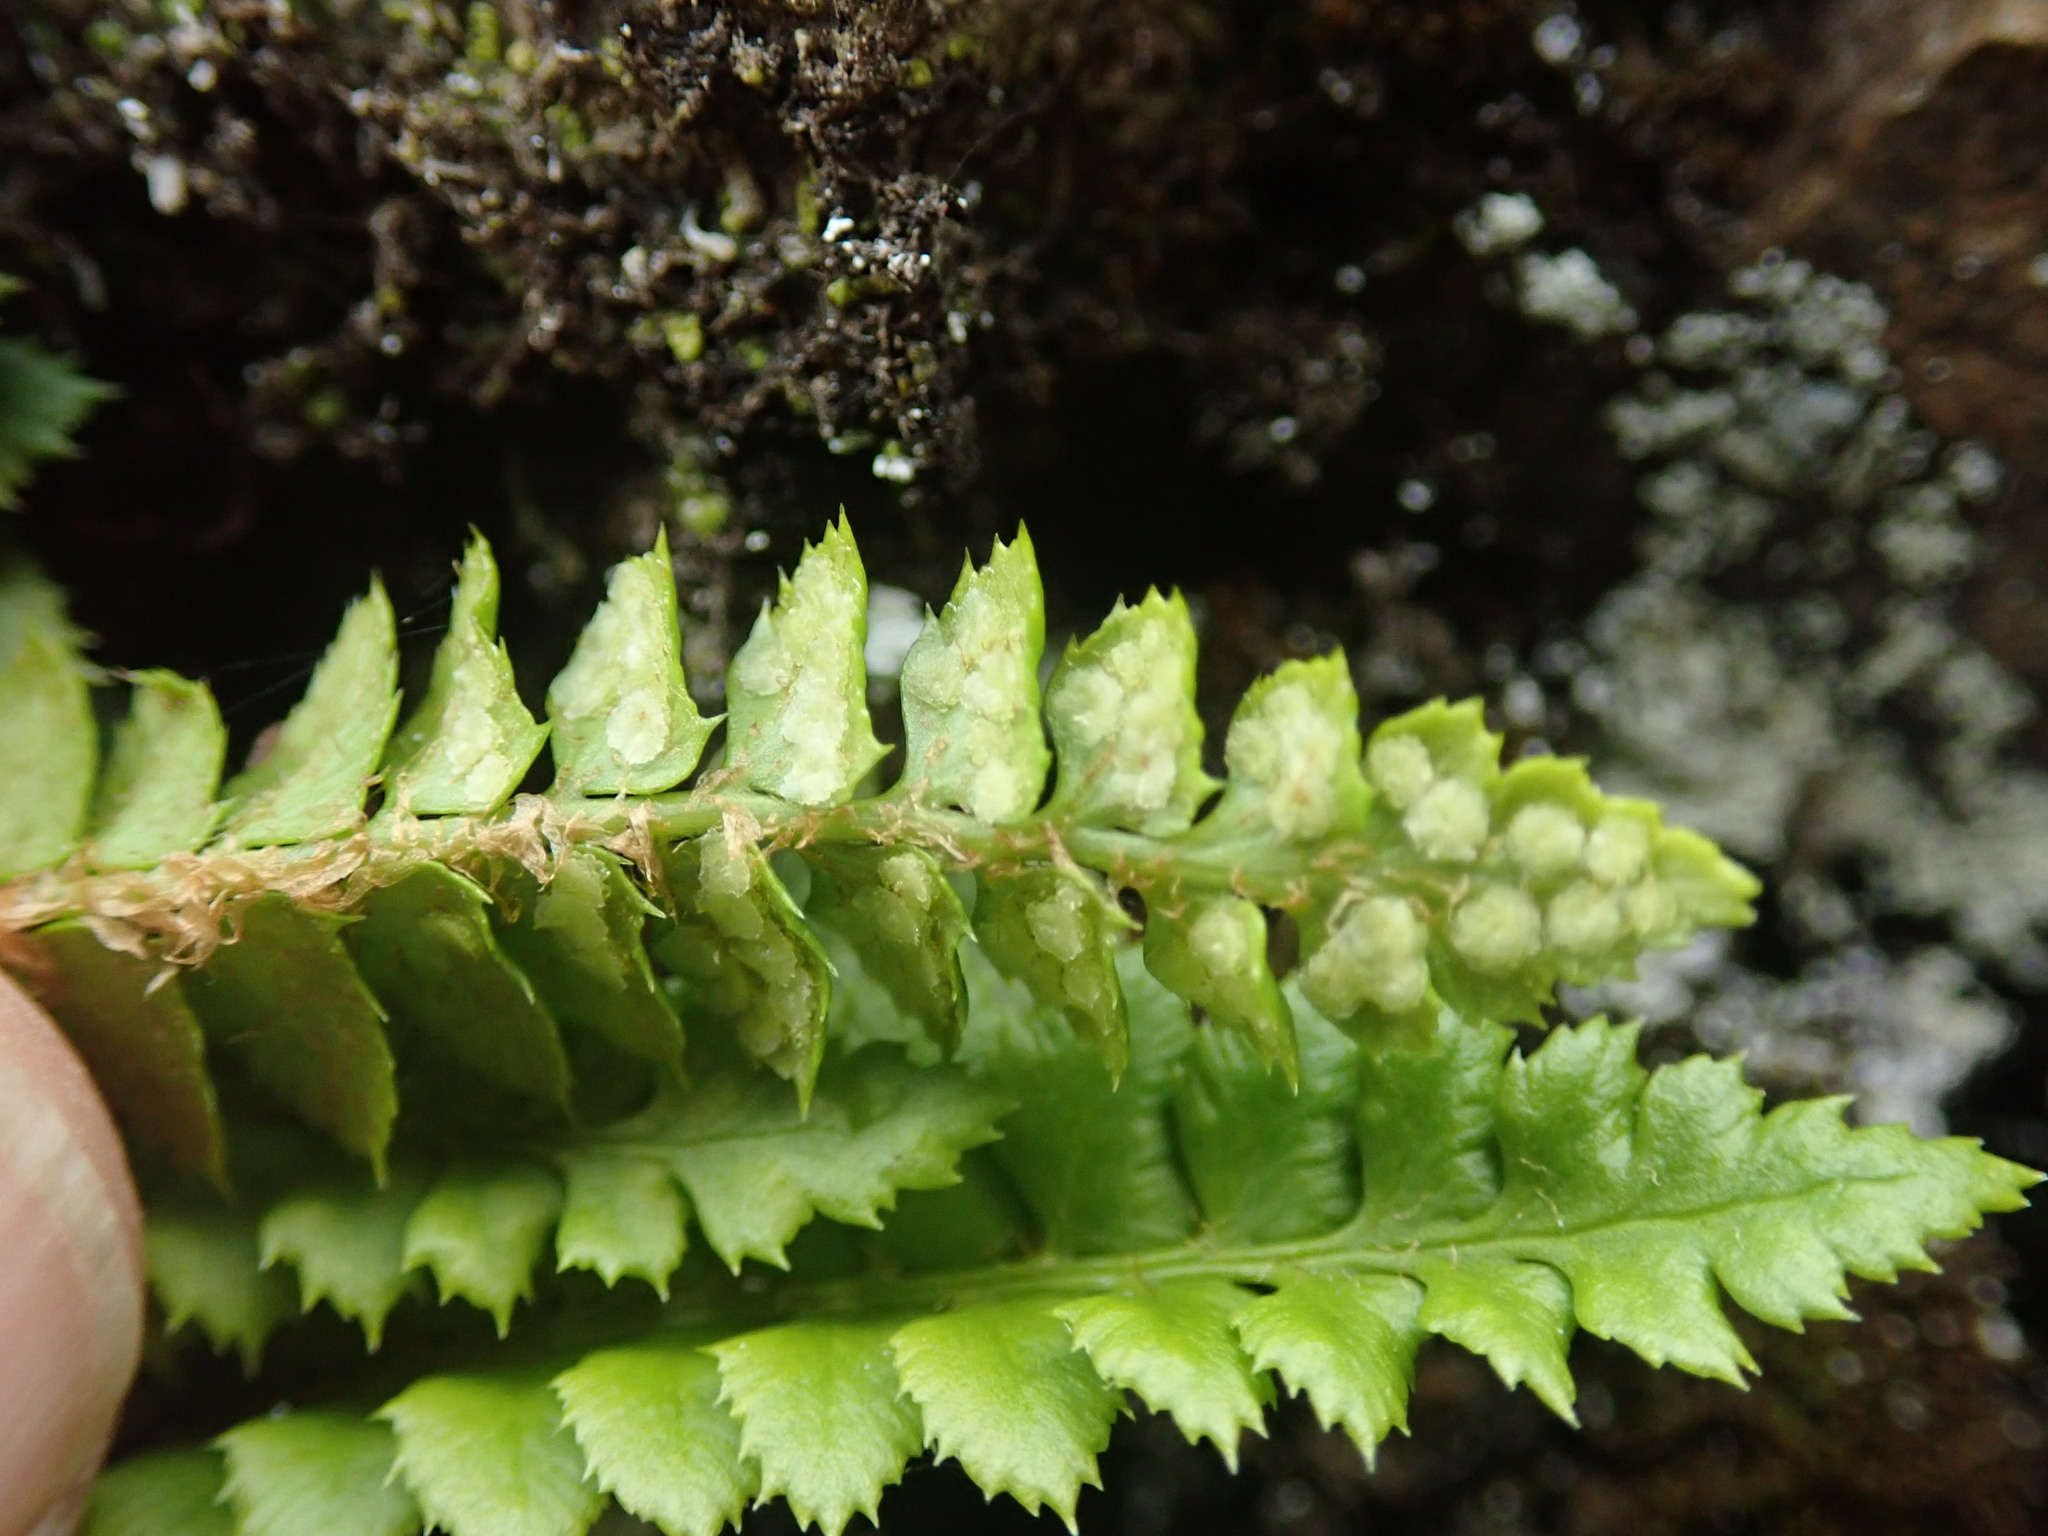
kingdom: Plantae
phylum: Tracheophyta
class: Polypodiopsida
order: Polypodiales
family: Dryopteridaceae
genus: Polystichum
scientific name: Polystichum lonchitis
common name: Holly fern
